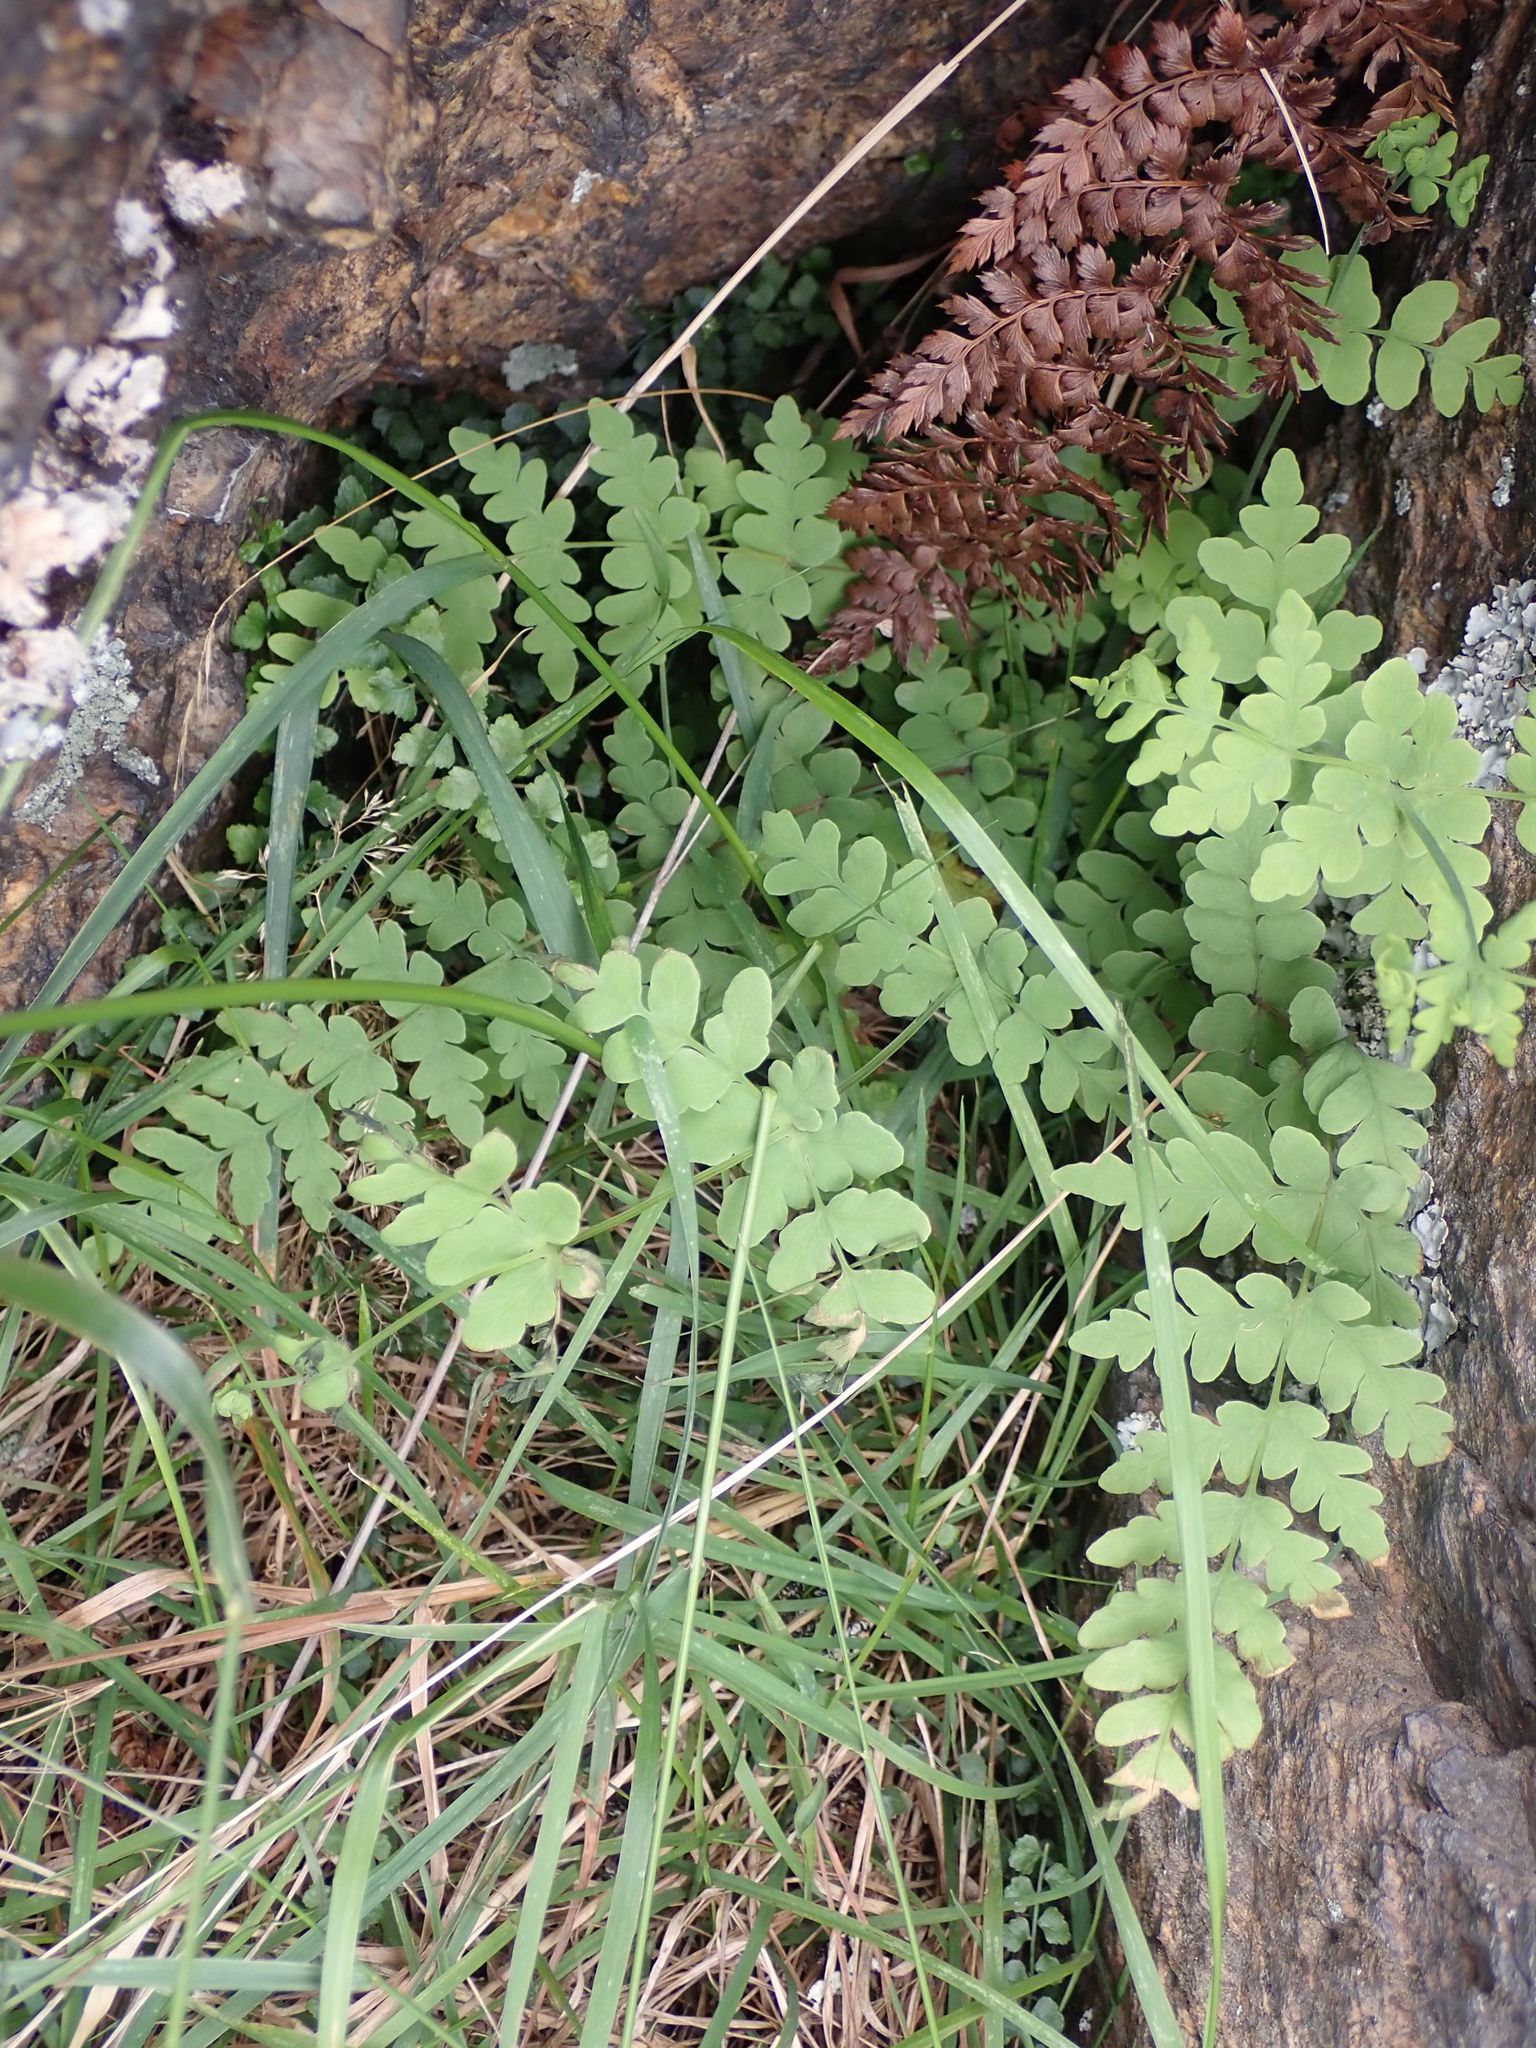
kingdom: Plantae
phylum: Tracheophyta
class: Polypodiopsida
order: Polypodiales
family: Dennstaedtiaceae
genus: Histiopteris
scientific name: Histiopteris incisa
